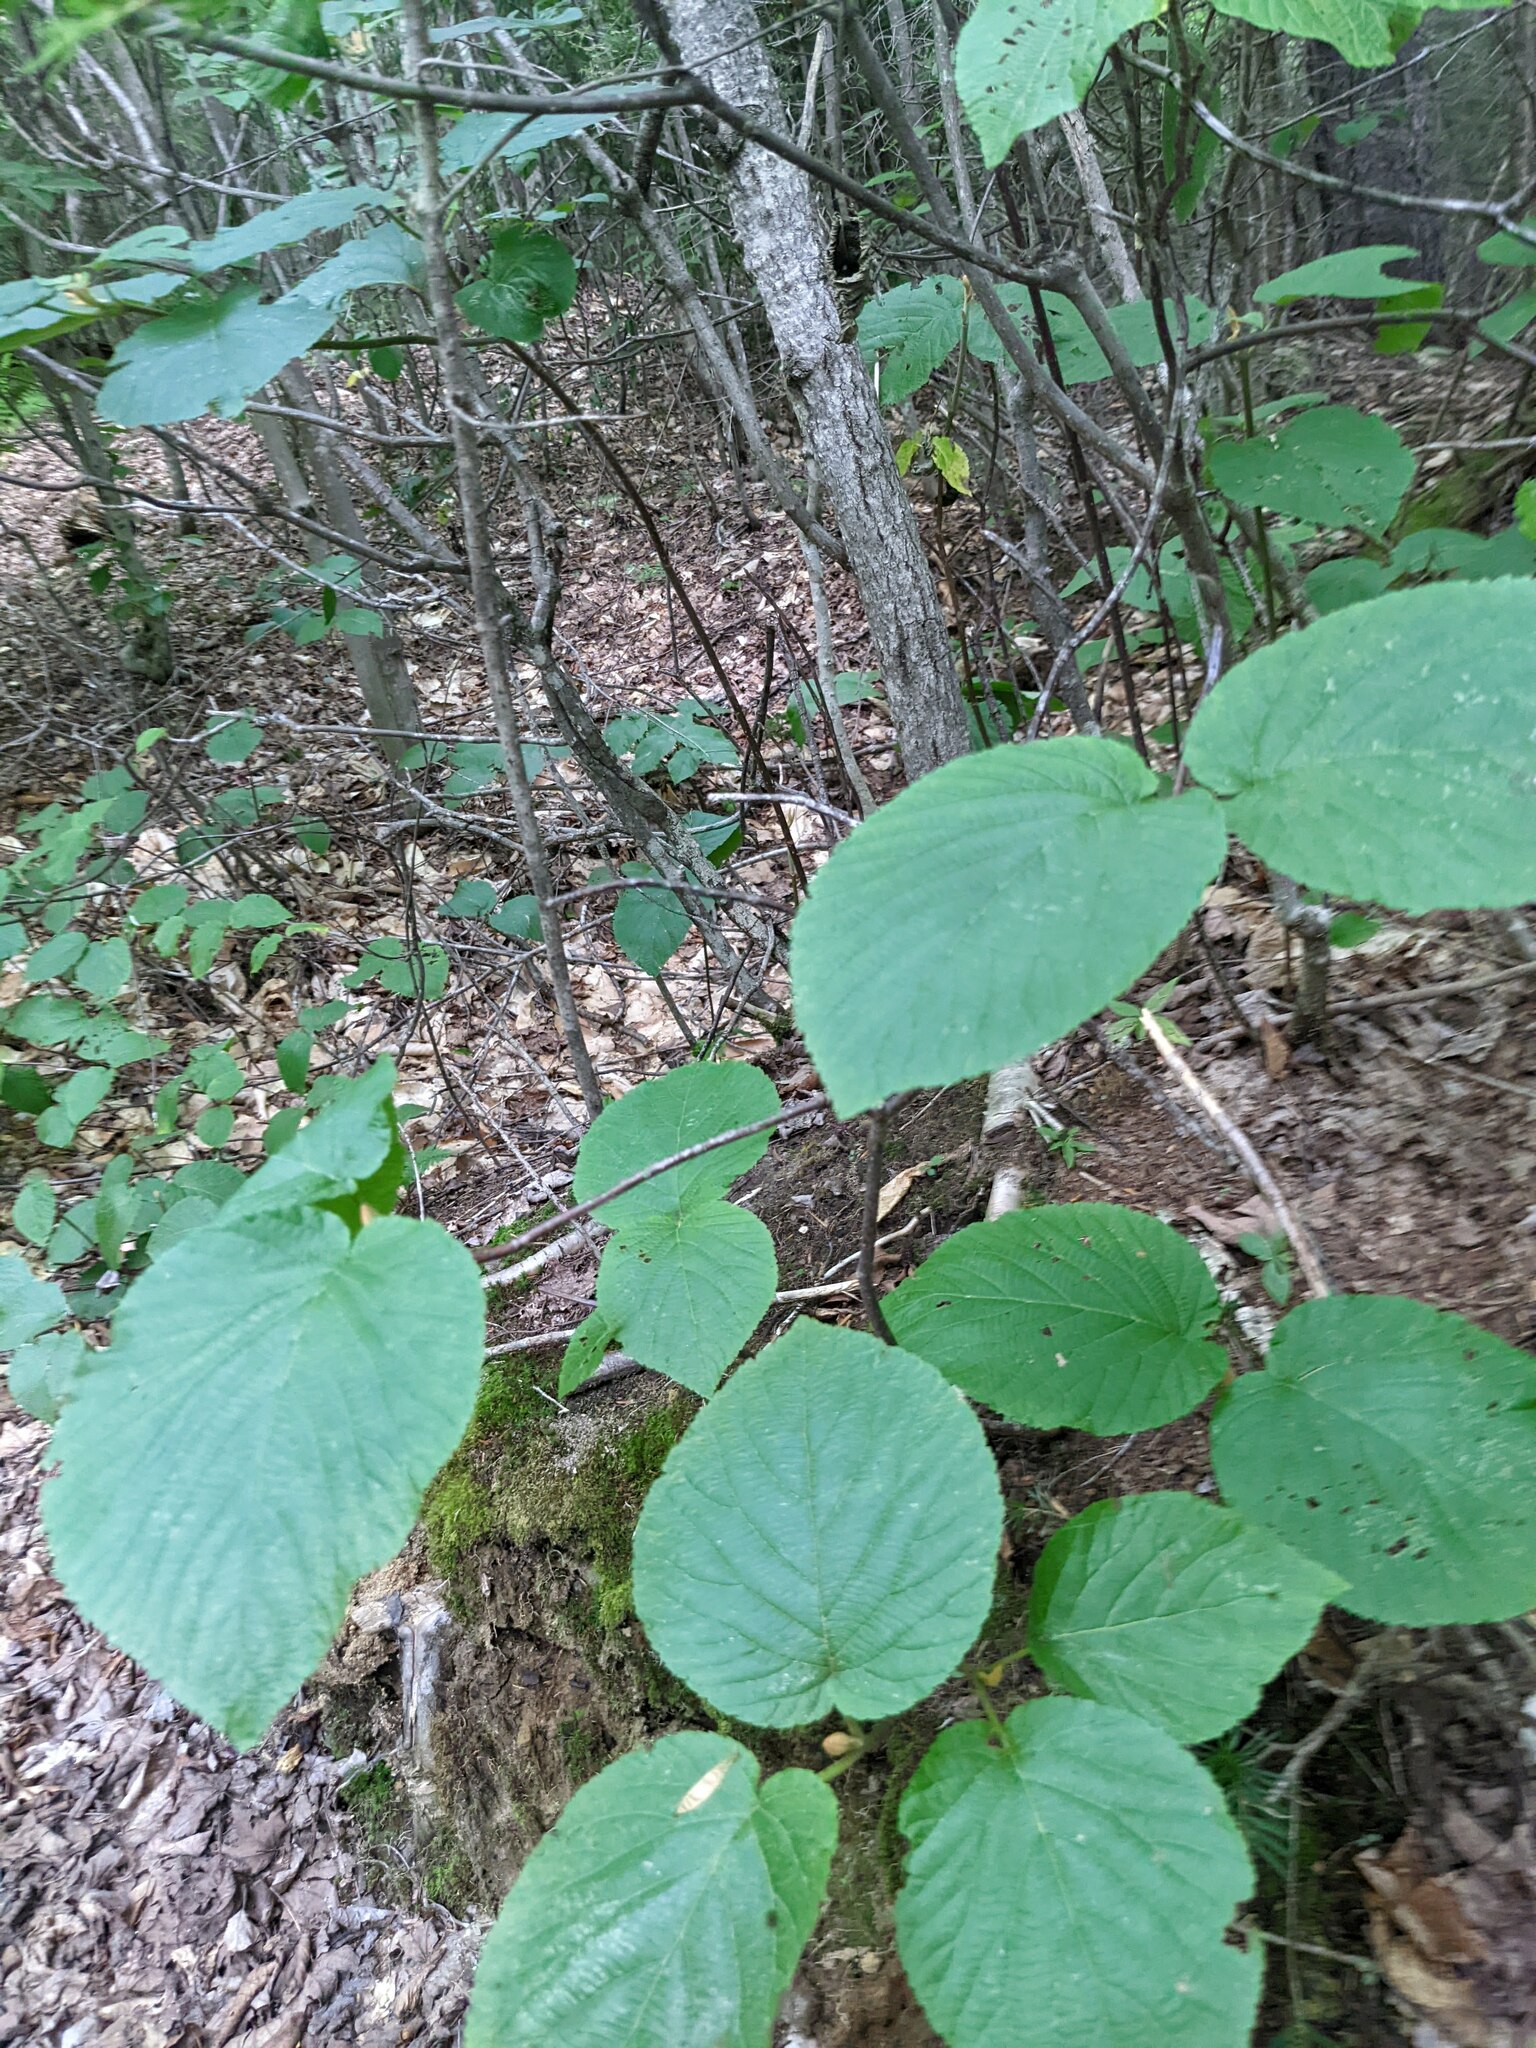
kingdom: Plantae
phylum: Tracheophyta
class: Magnoliopsida
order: Dipsacales
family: Viburnaceae
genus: Viburnum
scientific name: Viburnum lantanoides
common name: Hobblebush
